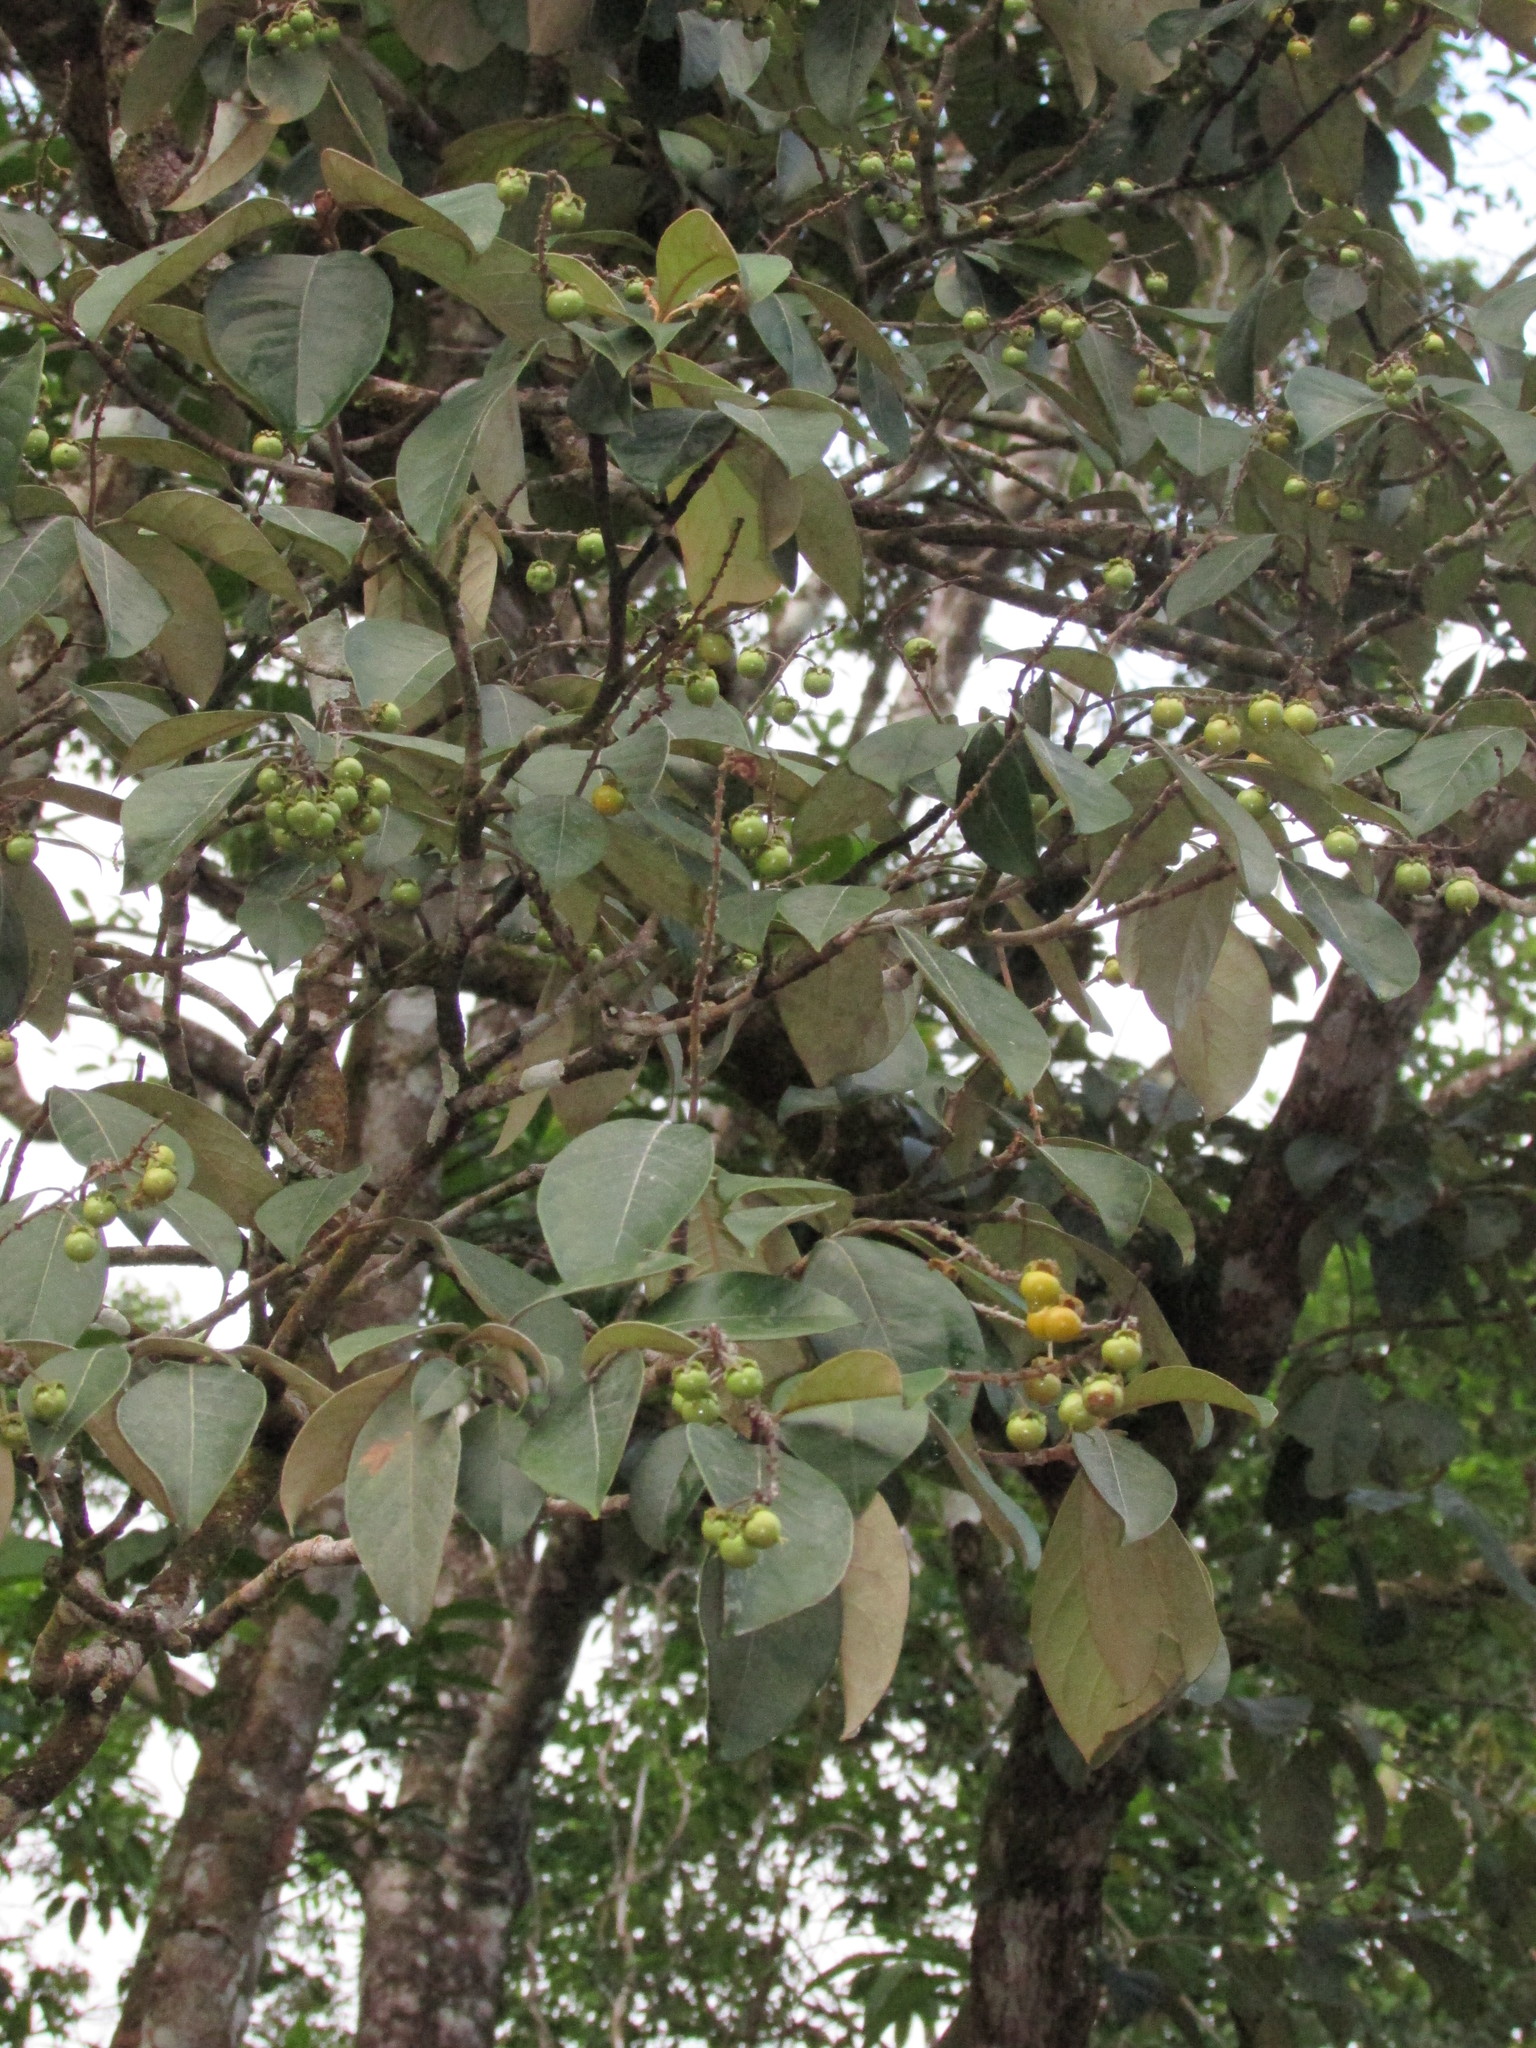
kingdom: Plantae
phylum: Tracheophyta
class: Magnoliopsida
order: Malpighiales
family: Malpighiaceae
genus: Byrsonima
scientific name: Byrsonima crassifolia
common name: Golden spoon
